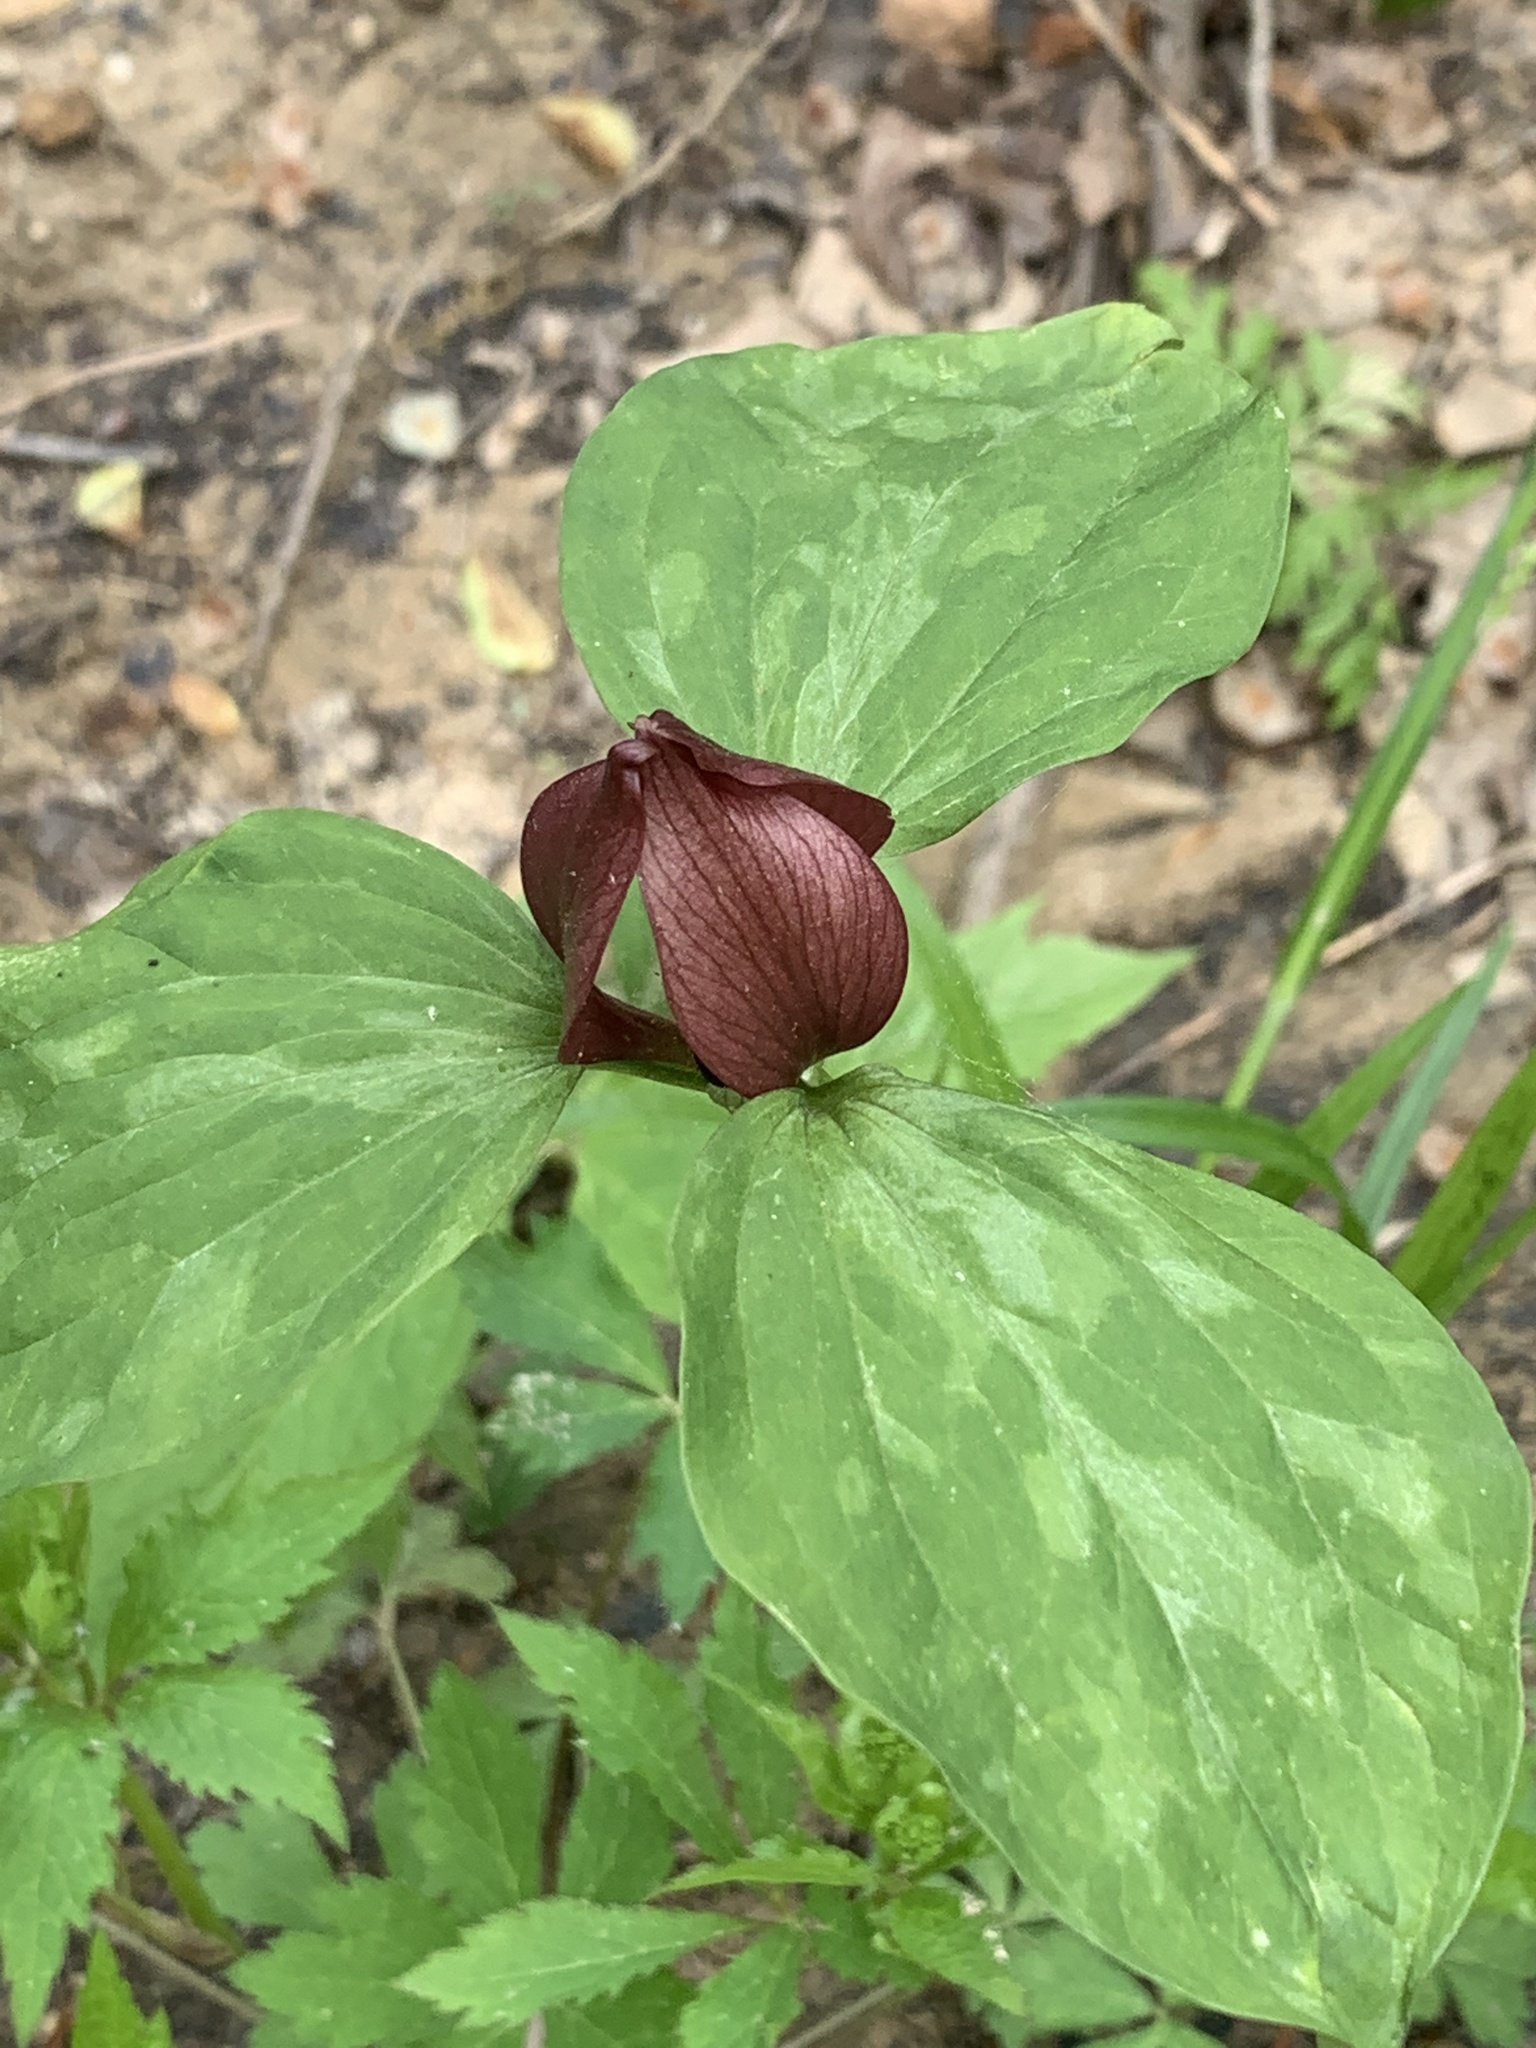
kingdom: Plantae
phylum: Tracheophyta
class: Liliopsida
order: Liliales
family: Melanthiaceae
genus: Trillium
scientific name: Trillium recurvatum
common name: Bloody butcher
